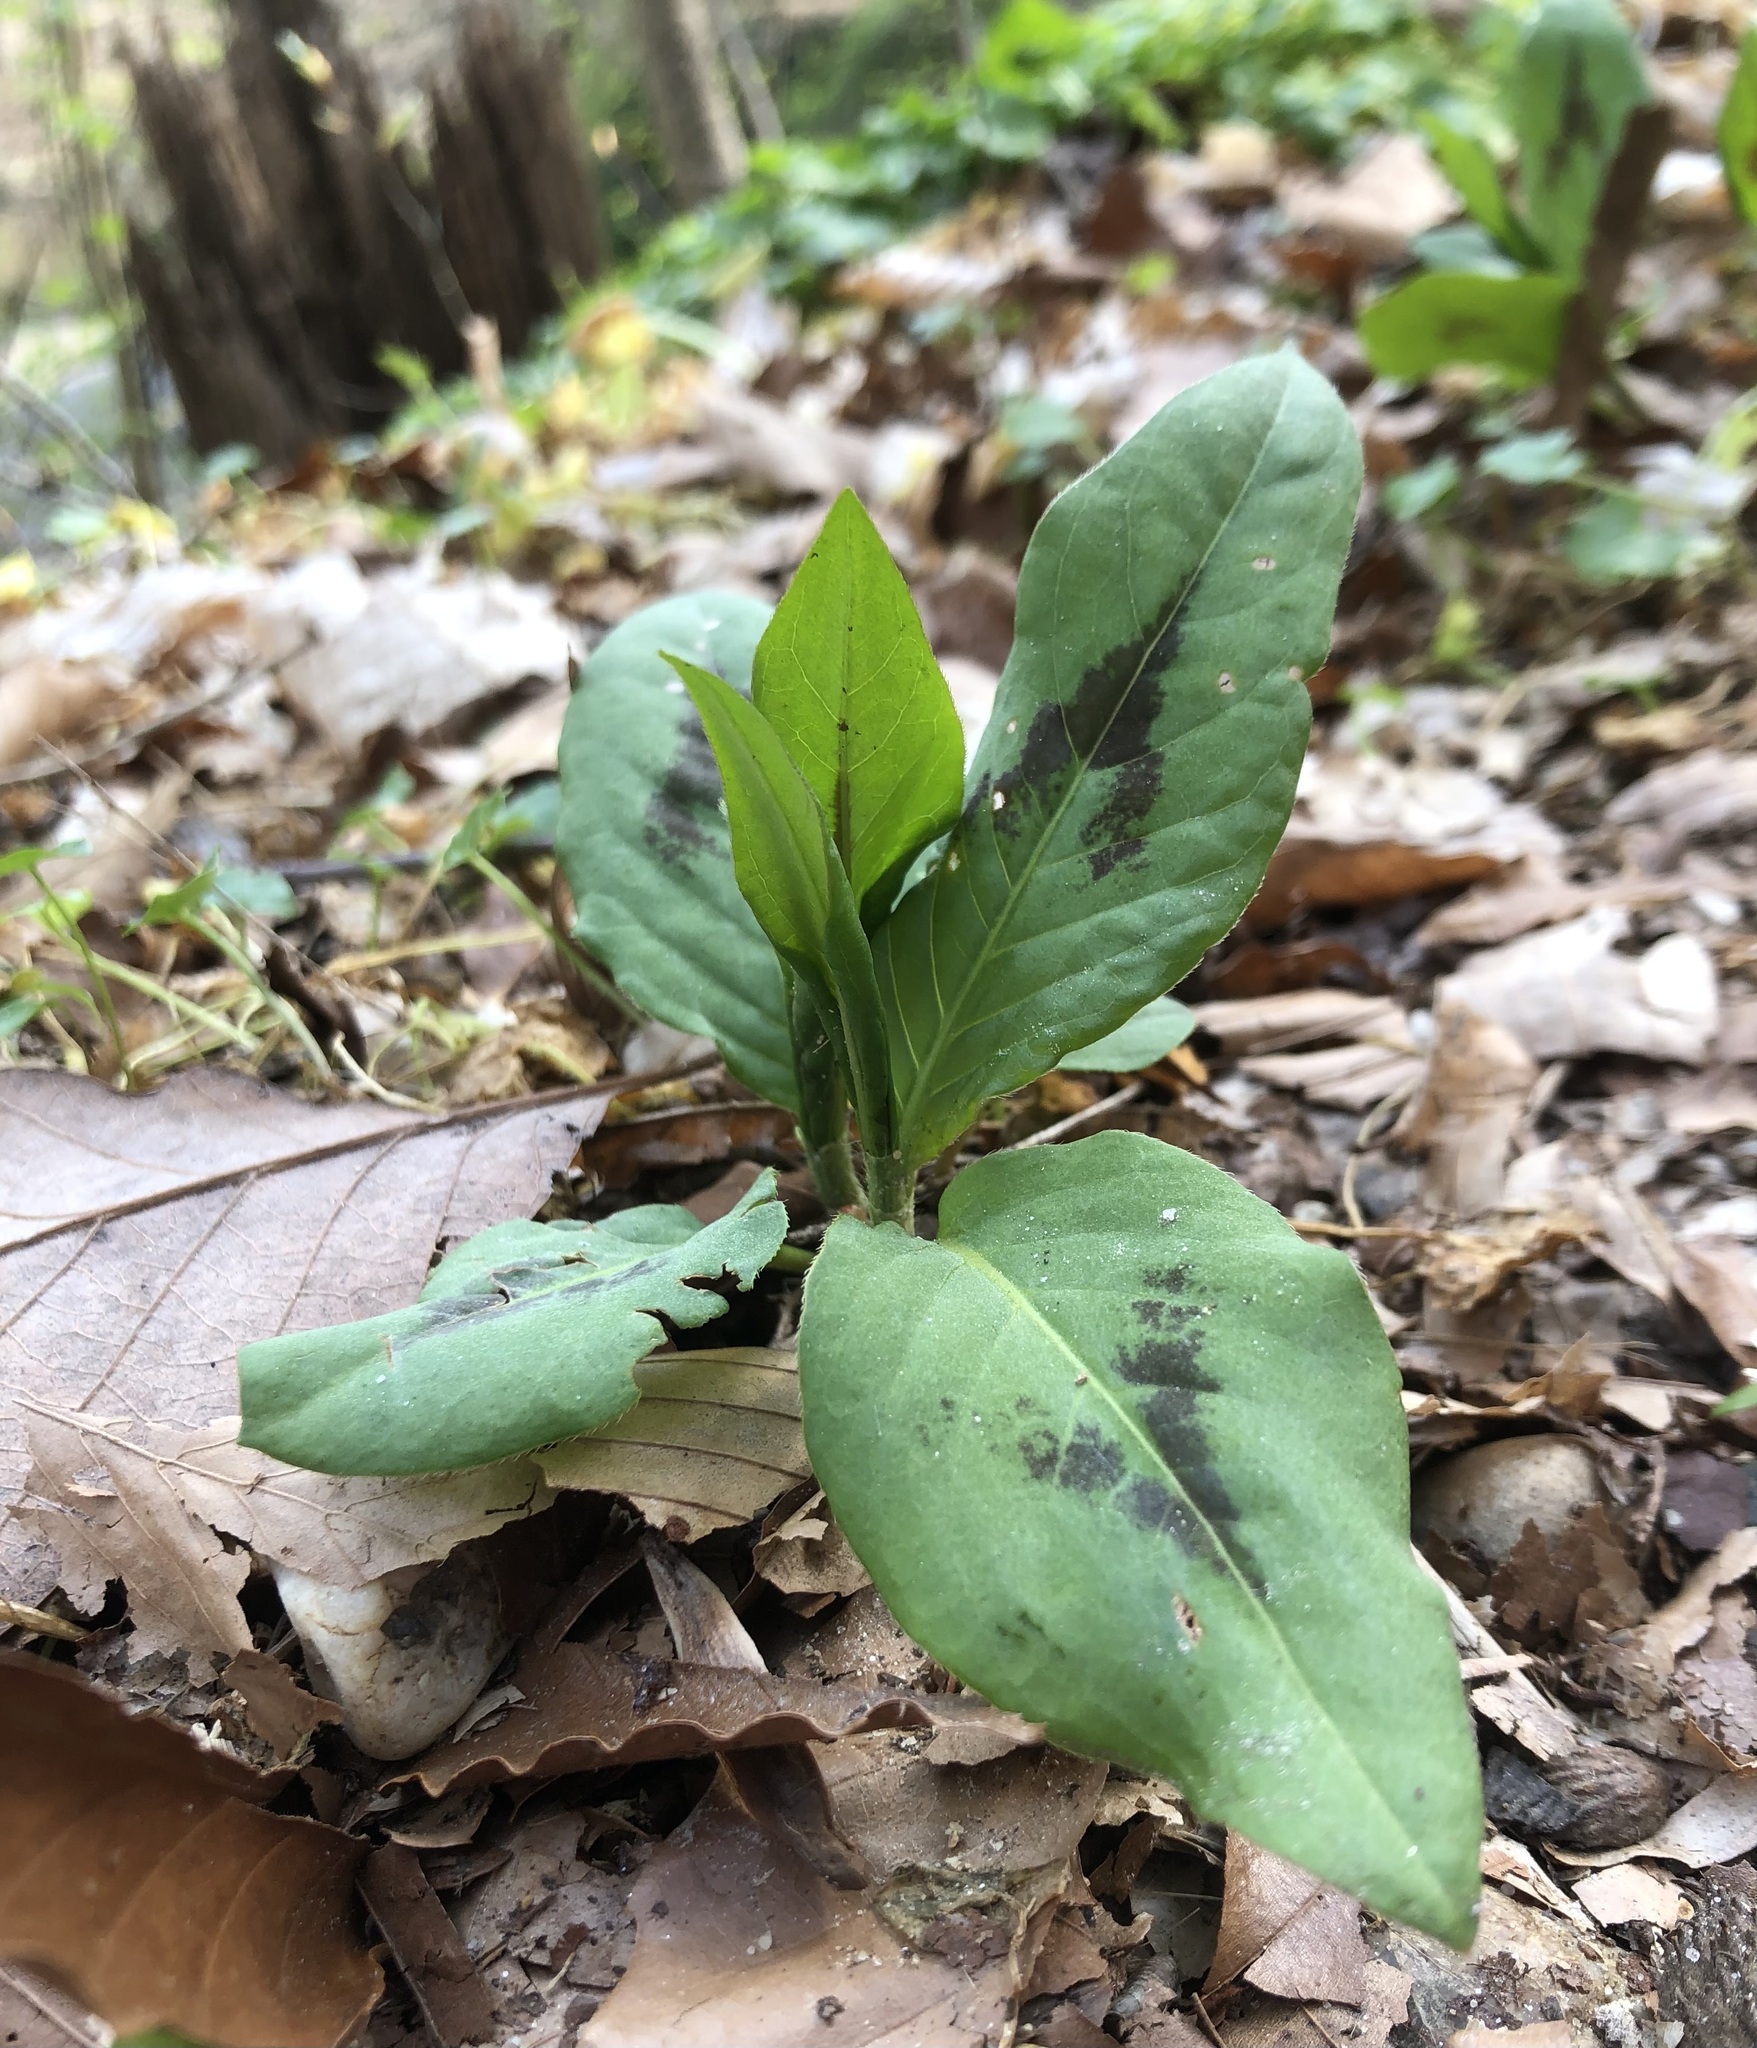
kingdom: Plantae
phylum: Tracheophyta
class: Magnoliopsida
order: Caryophyllales
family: Polygonaceae
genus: Persicaria
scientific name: Persicaria virginiana
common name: Jumpseed
